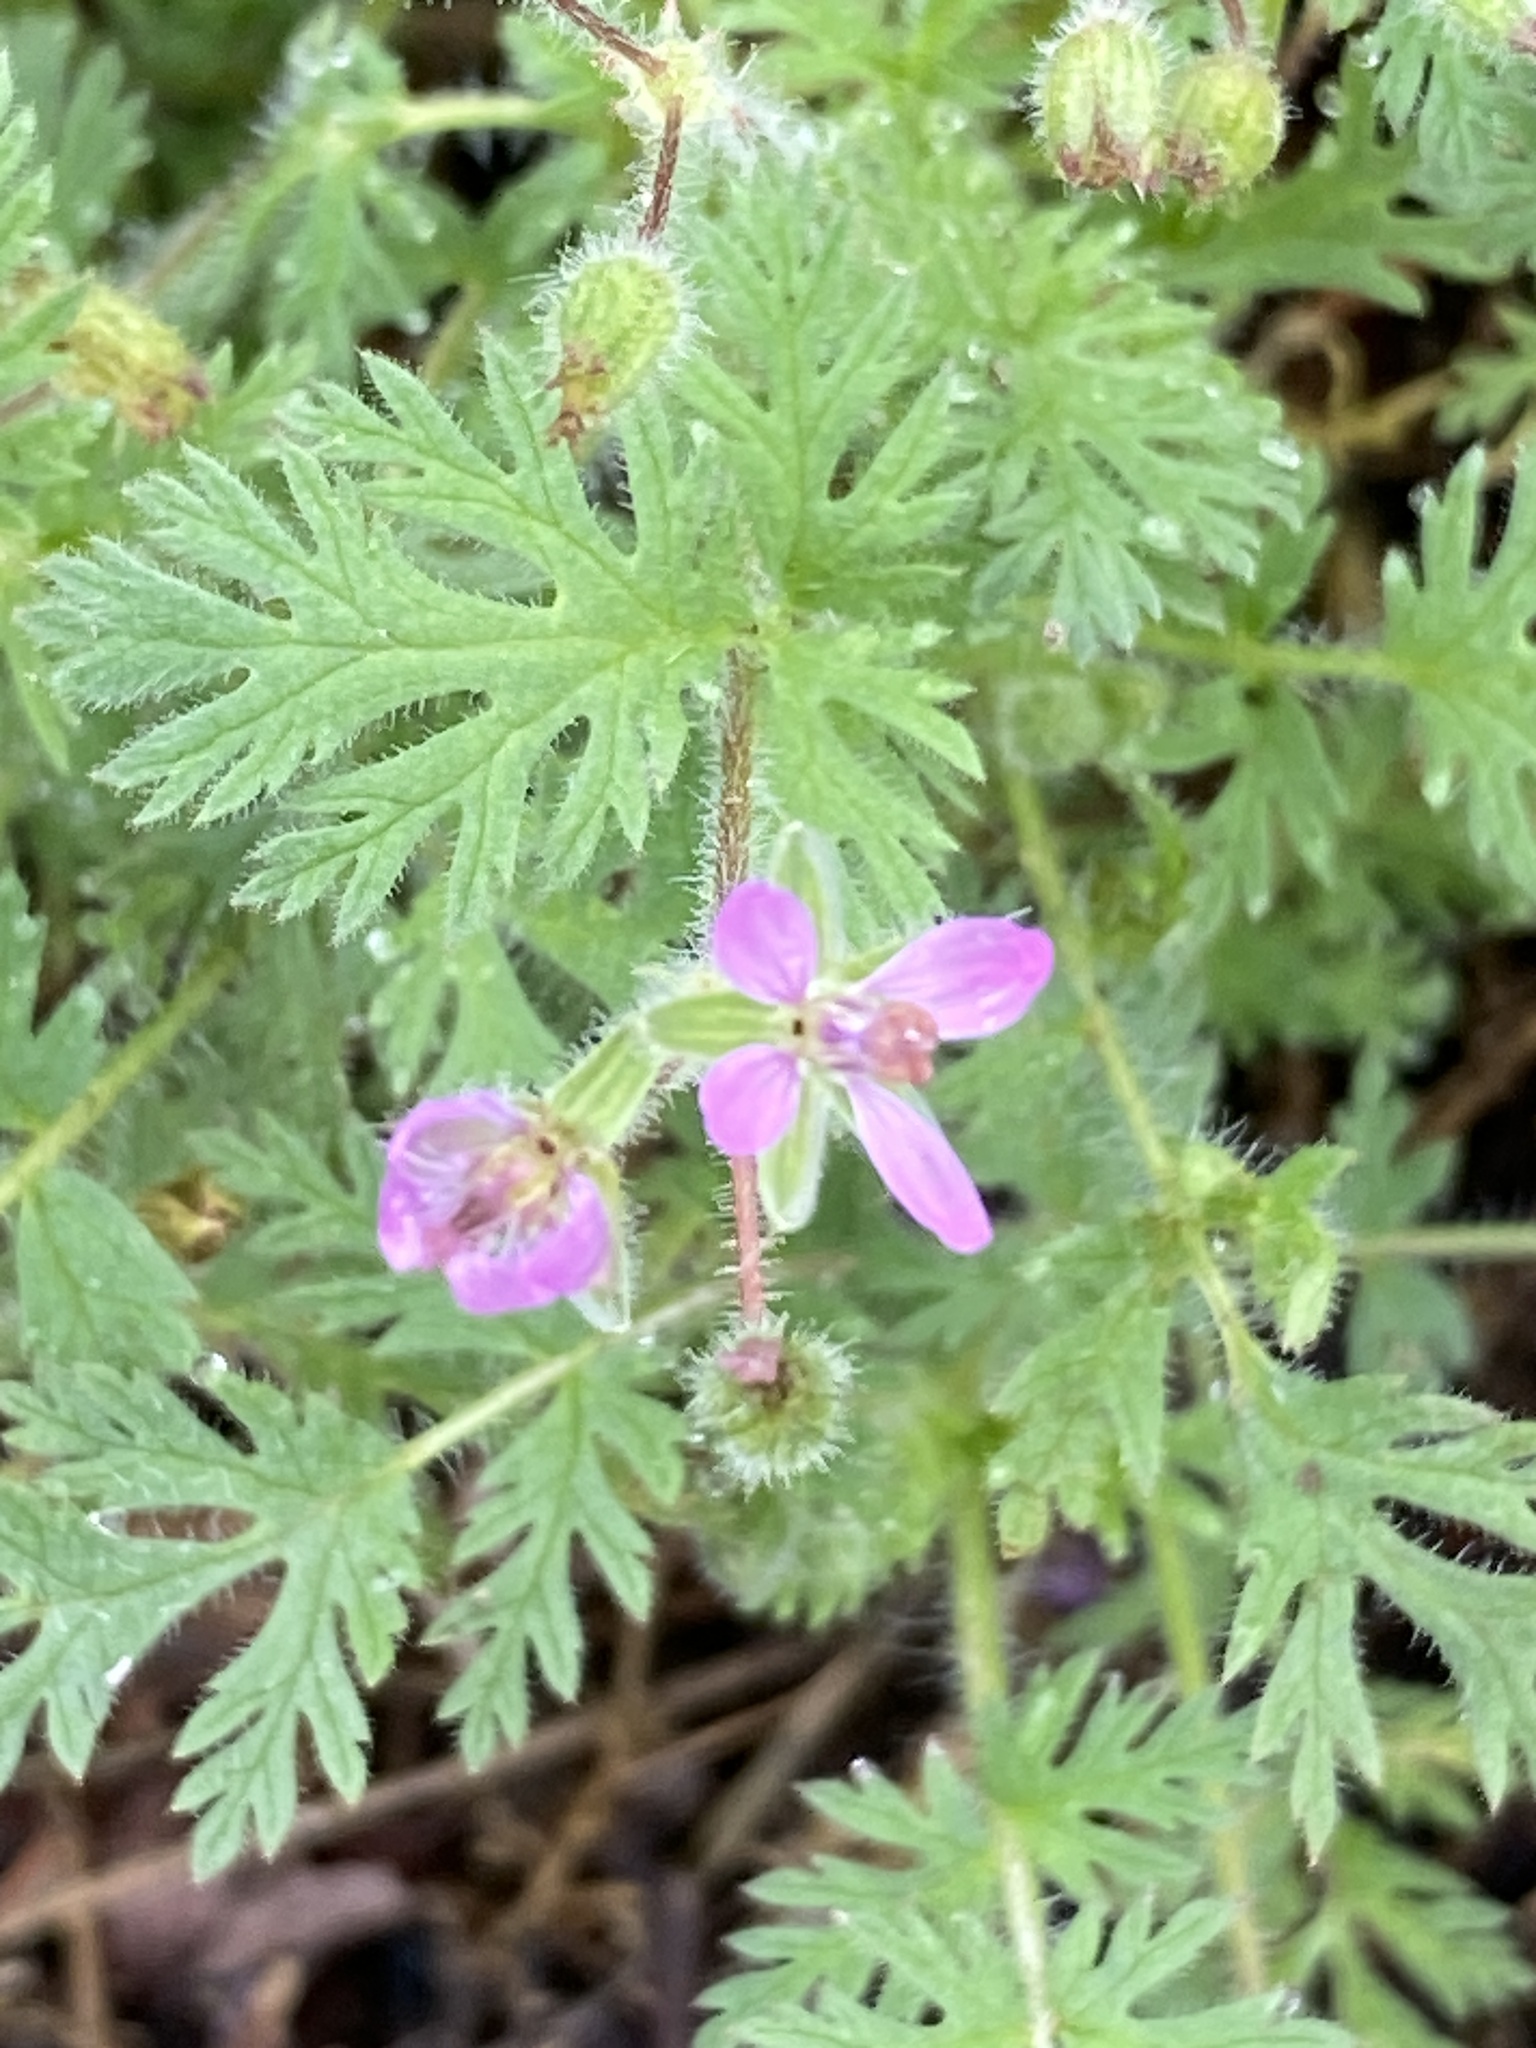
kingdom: Plantae
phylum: Tracheophyta
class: Magnoliopsida
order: Geraniales
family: Geraniaceae
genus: Erodium
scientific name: Erodium cicutarium
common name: Common stork's-bill
